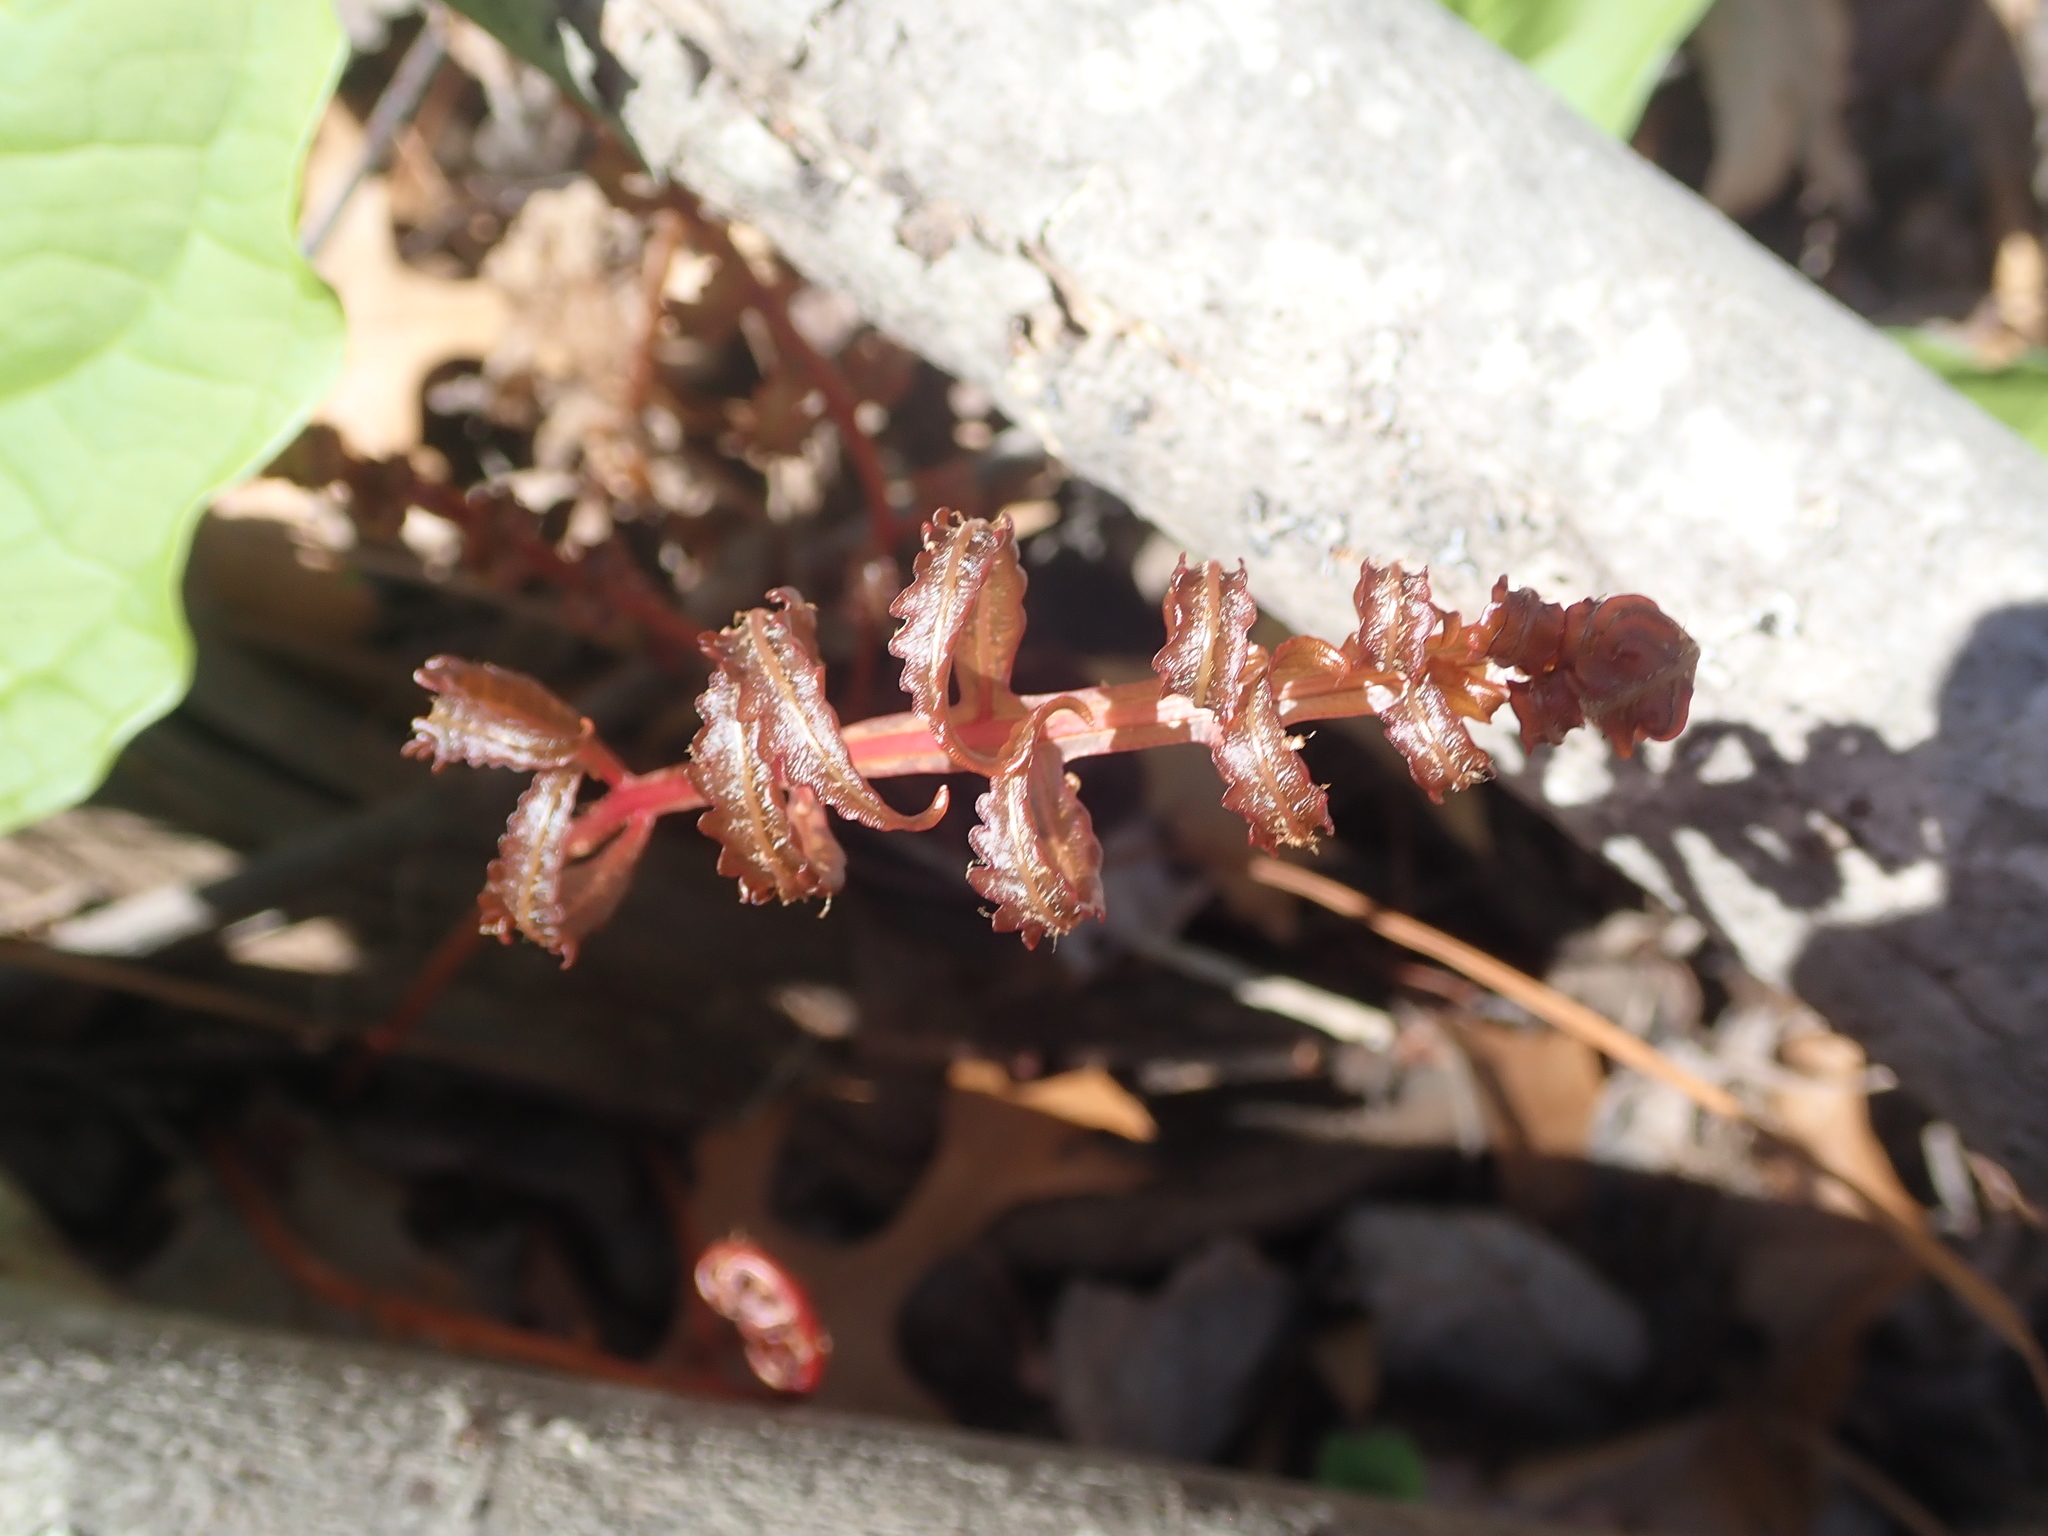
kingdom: Plantae
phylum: Tracheophyta
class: Polypodiopsida
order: Polypodiales
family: Onocleaceae
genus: Onoclea
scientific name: Onoclea sensibilis
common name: Sensitive fern
